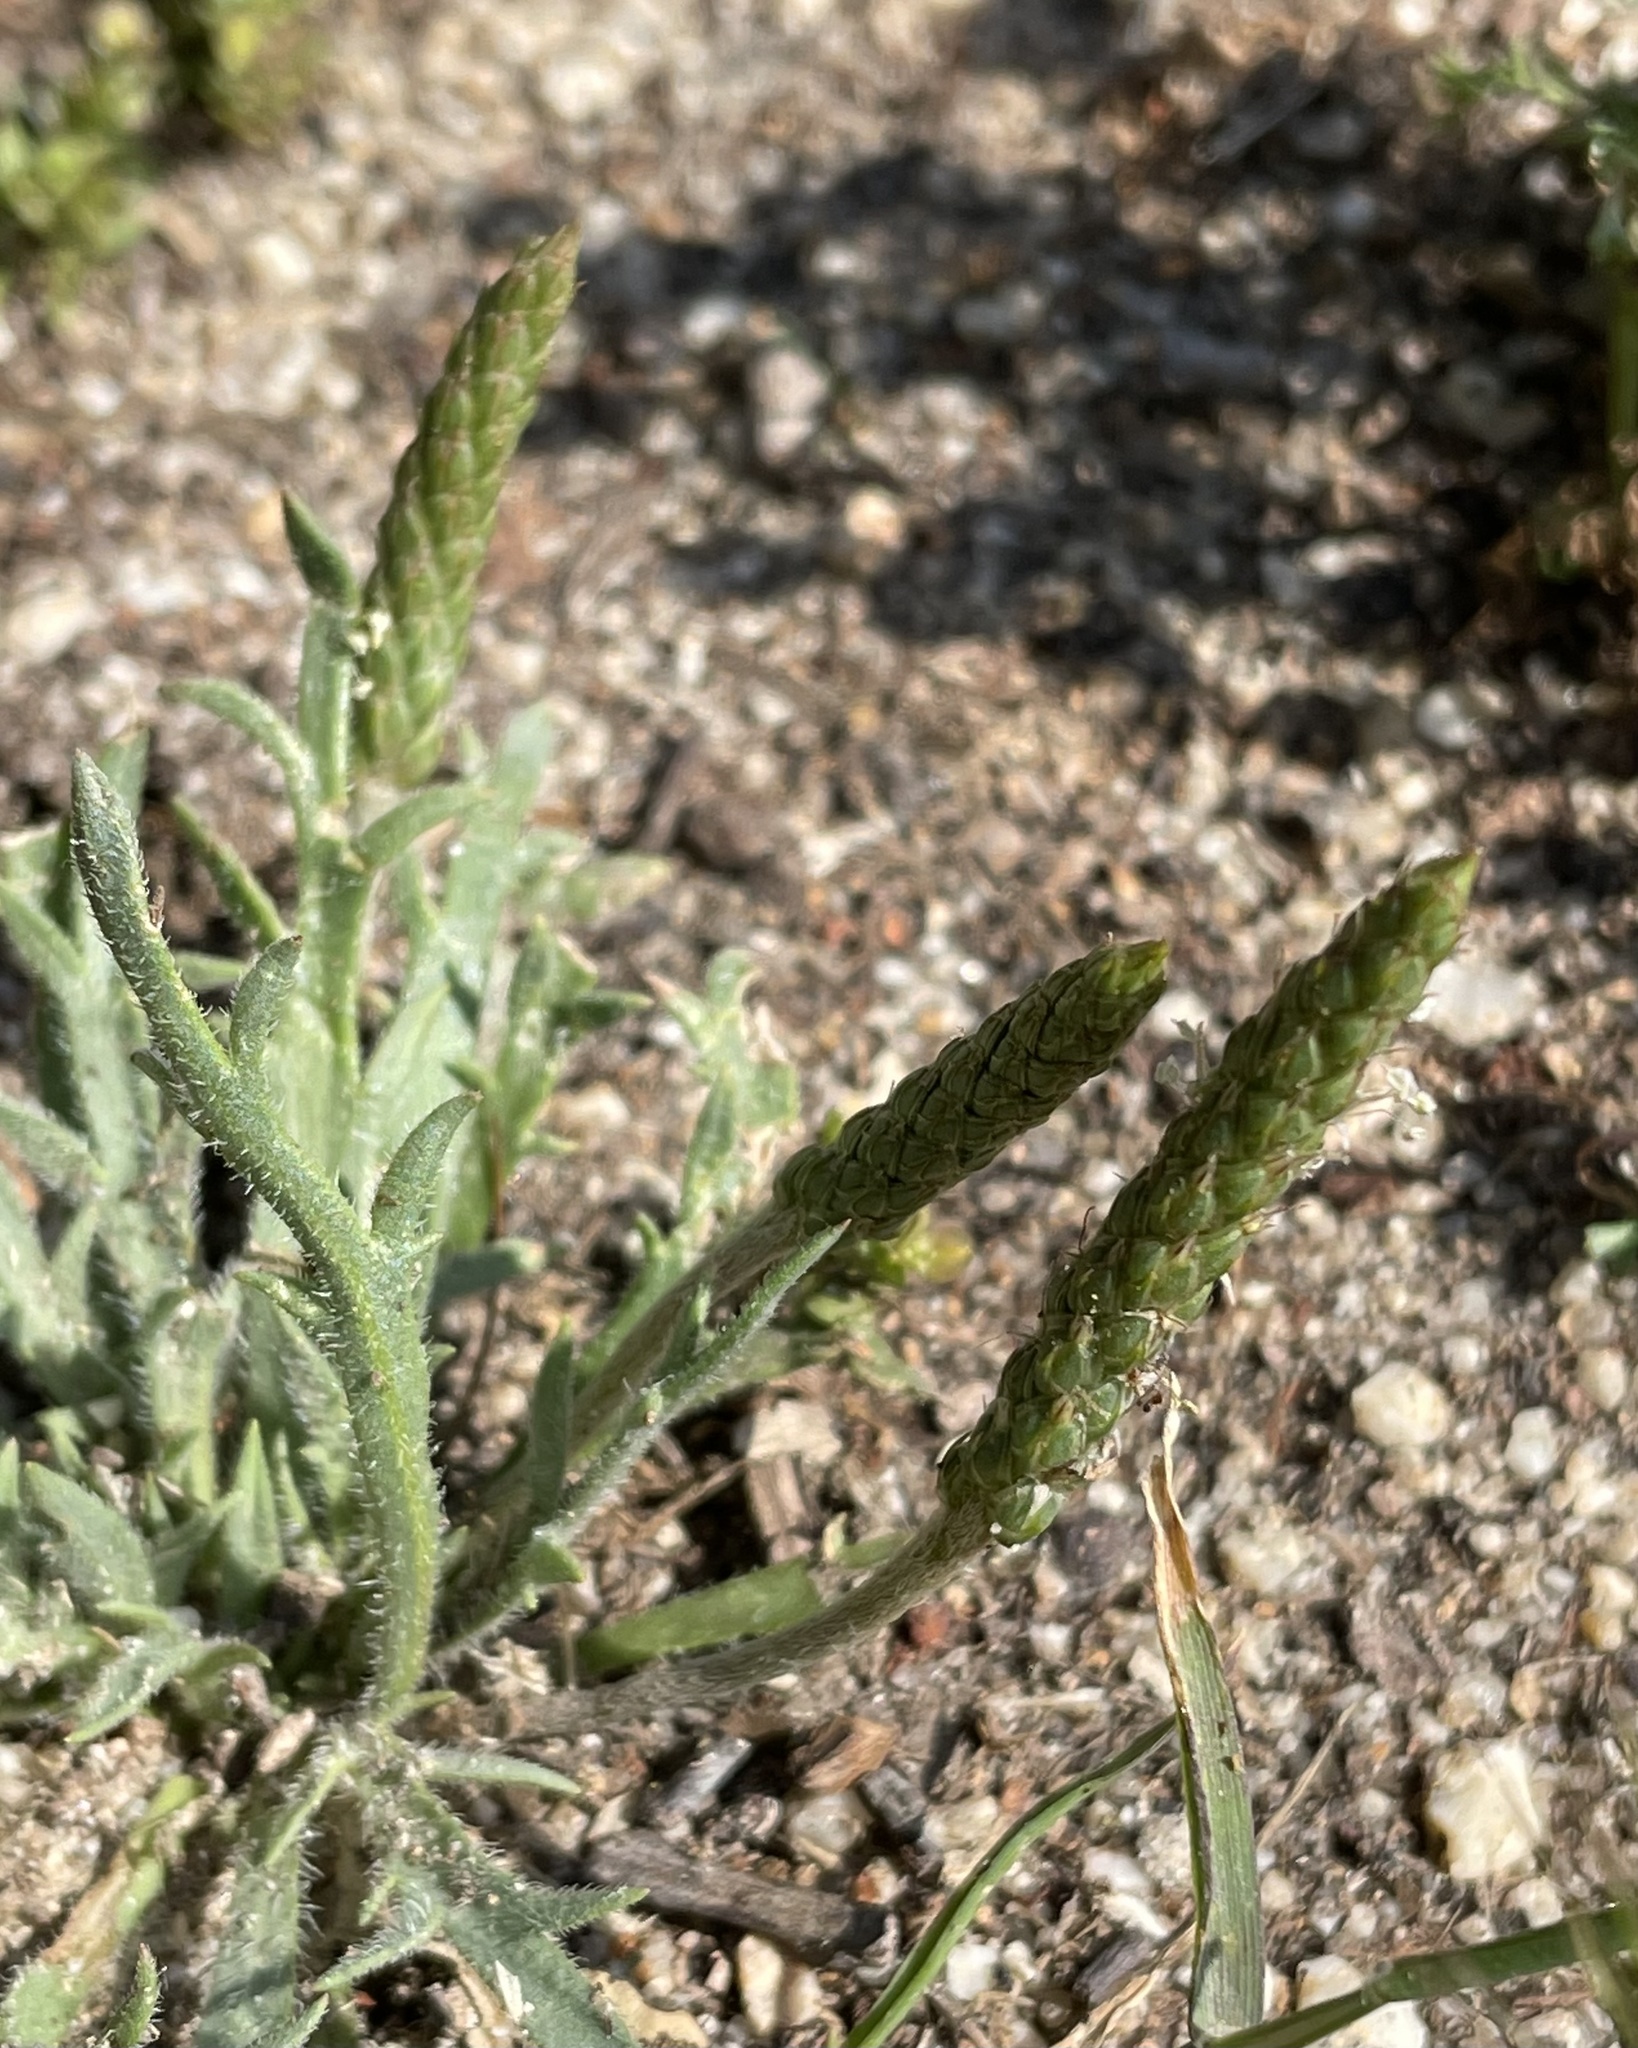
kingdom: Plantae
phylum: Tracheophyta
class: Magnoliopsida
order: Lamiales
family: Plantaginaceae
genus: Plantago
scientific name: Plantago coronopus
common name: Buck's-horn plantain
